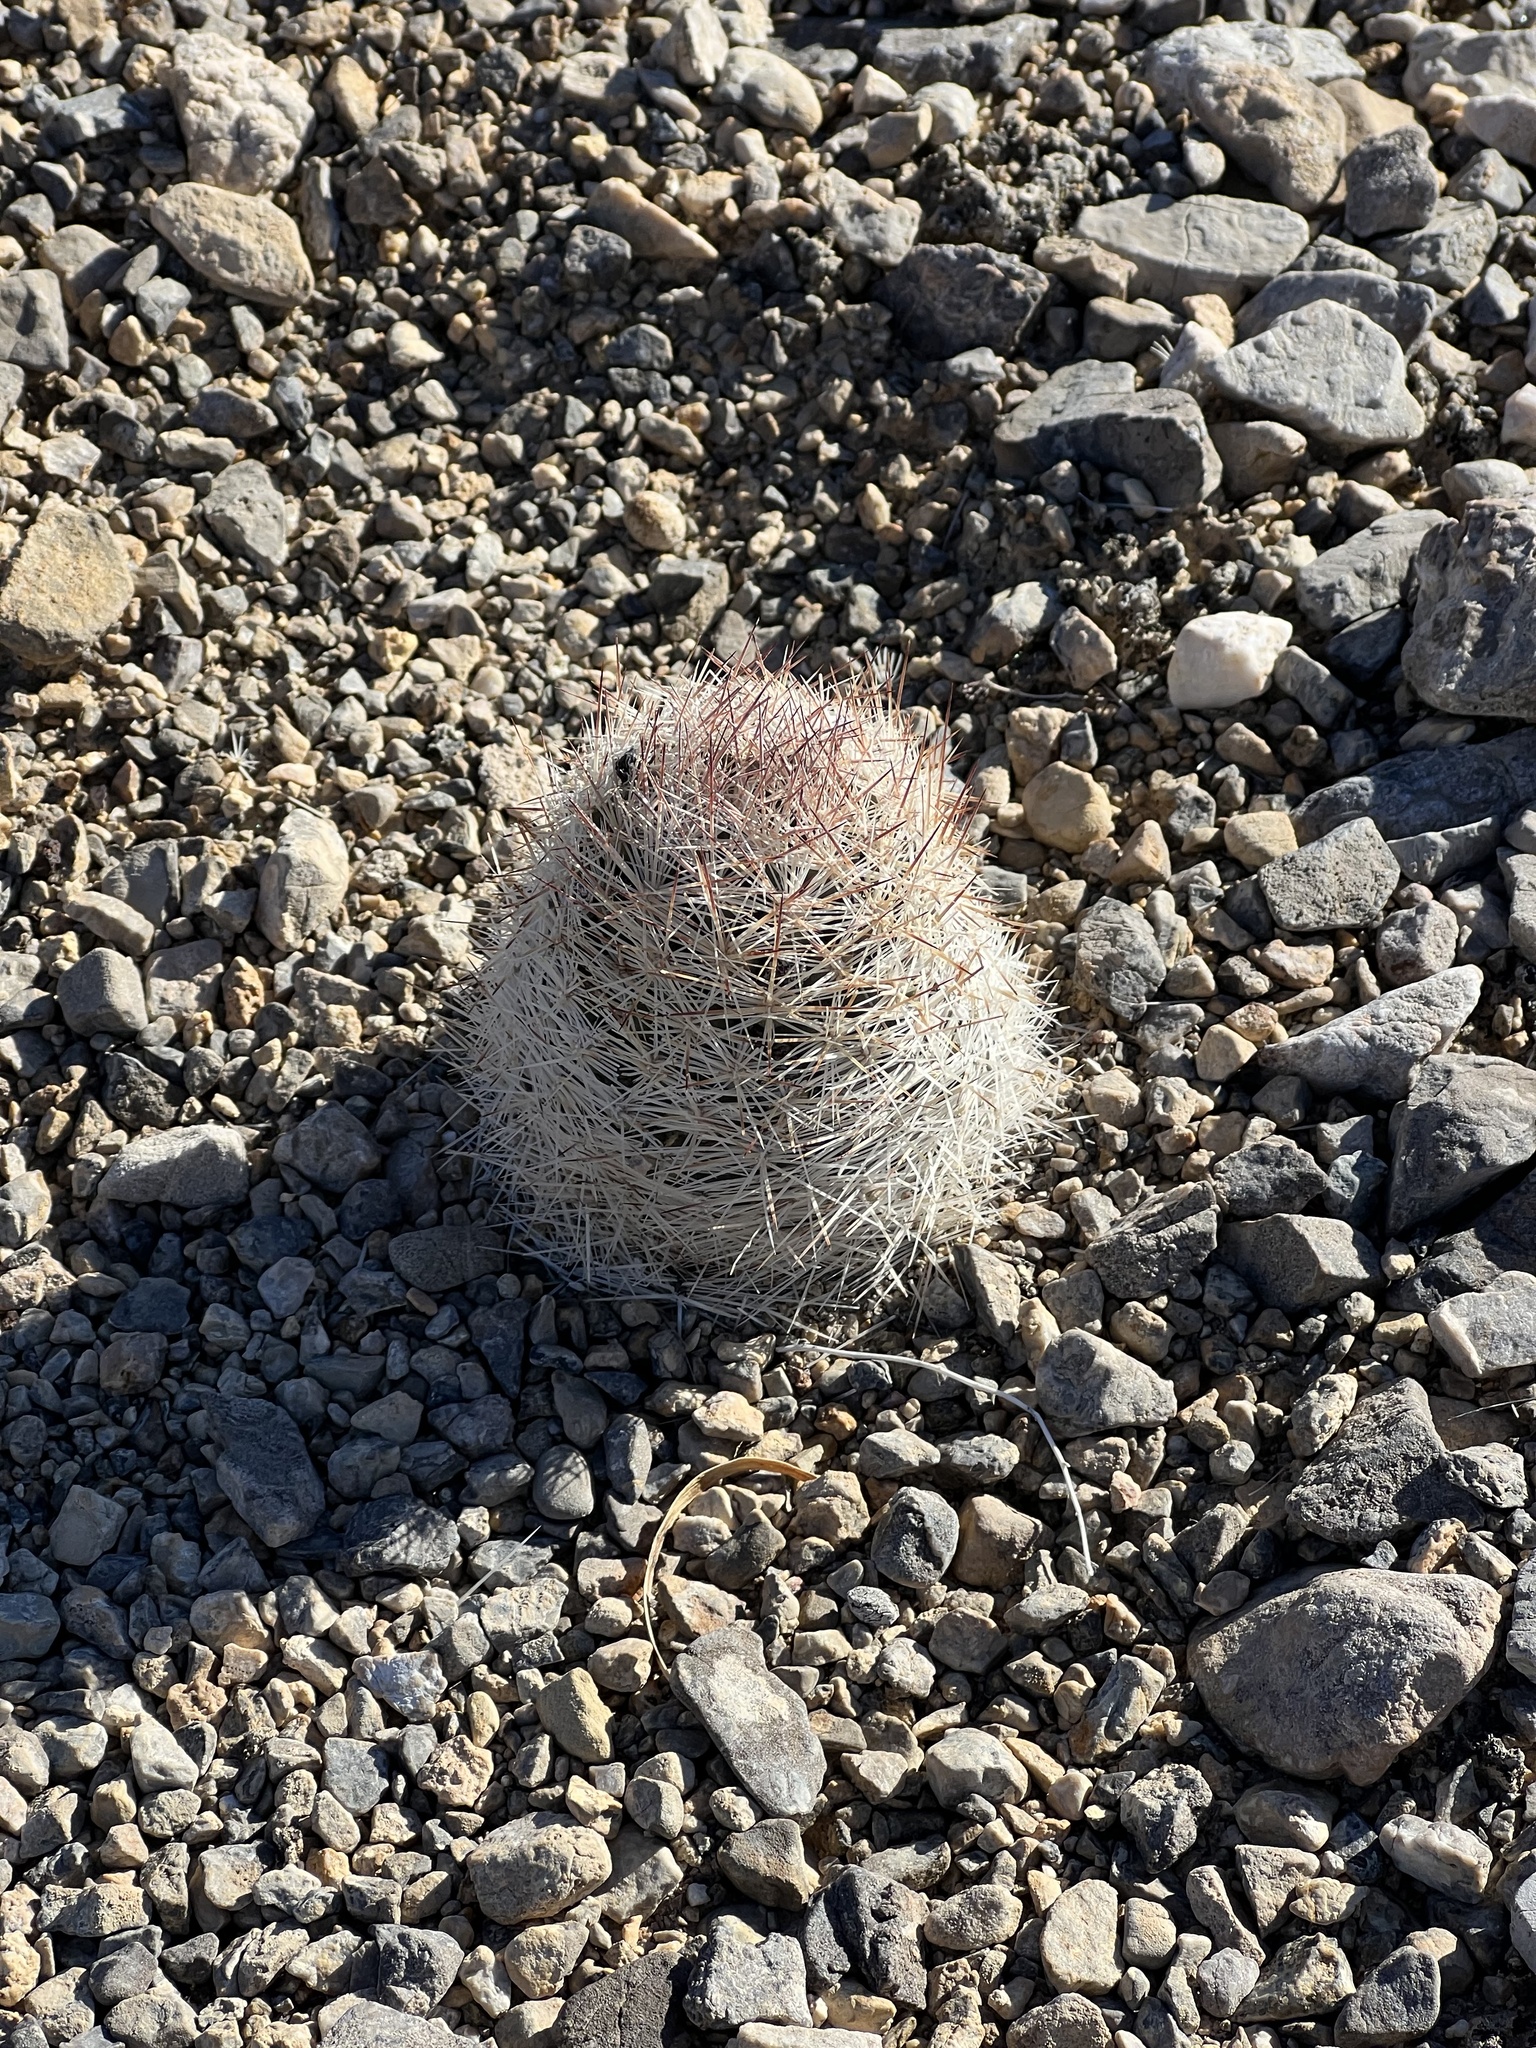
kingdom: Plantae
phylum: Tracheophyta
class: Magnoliopsida
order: Caryophyllales
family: Cactaceae
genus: Pelecyphora
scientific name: Pelecyphora dasyacantha
